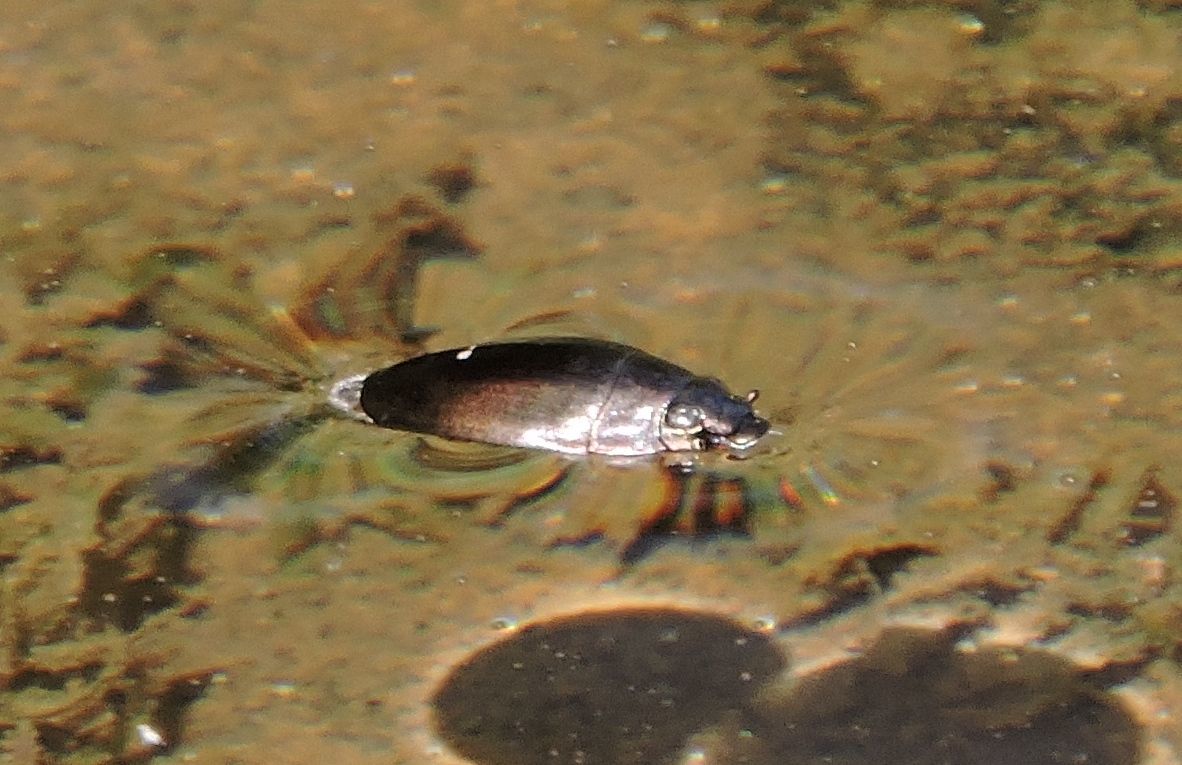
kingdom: Animalia
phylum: Arthropoda
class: Insecta
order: Coleoptera
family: Gyrinidae
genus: Dineutus
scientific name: Dineutus
